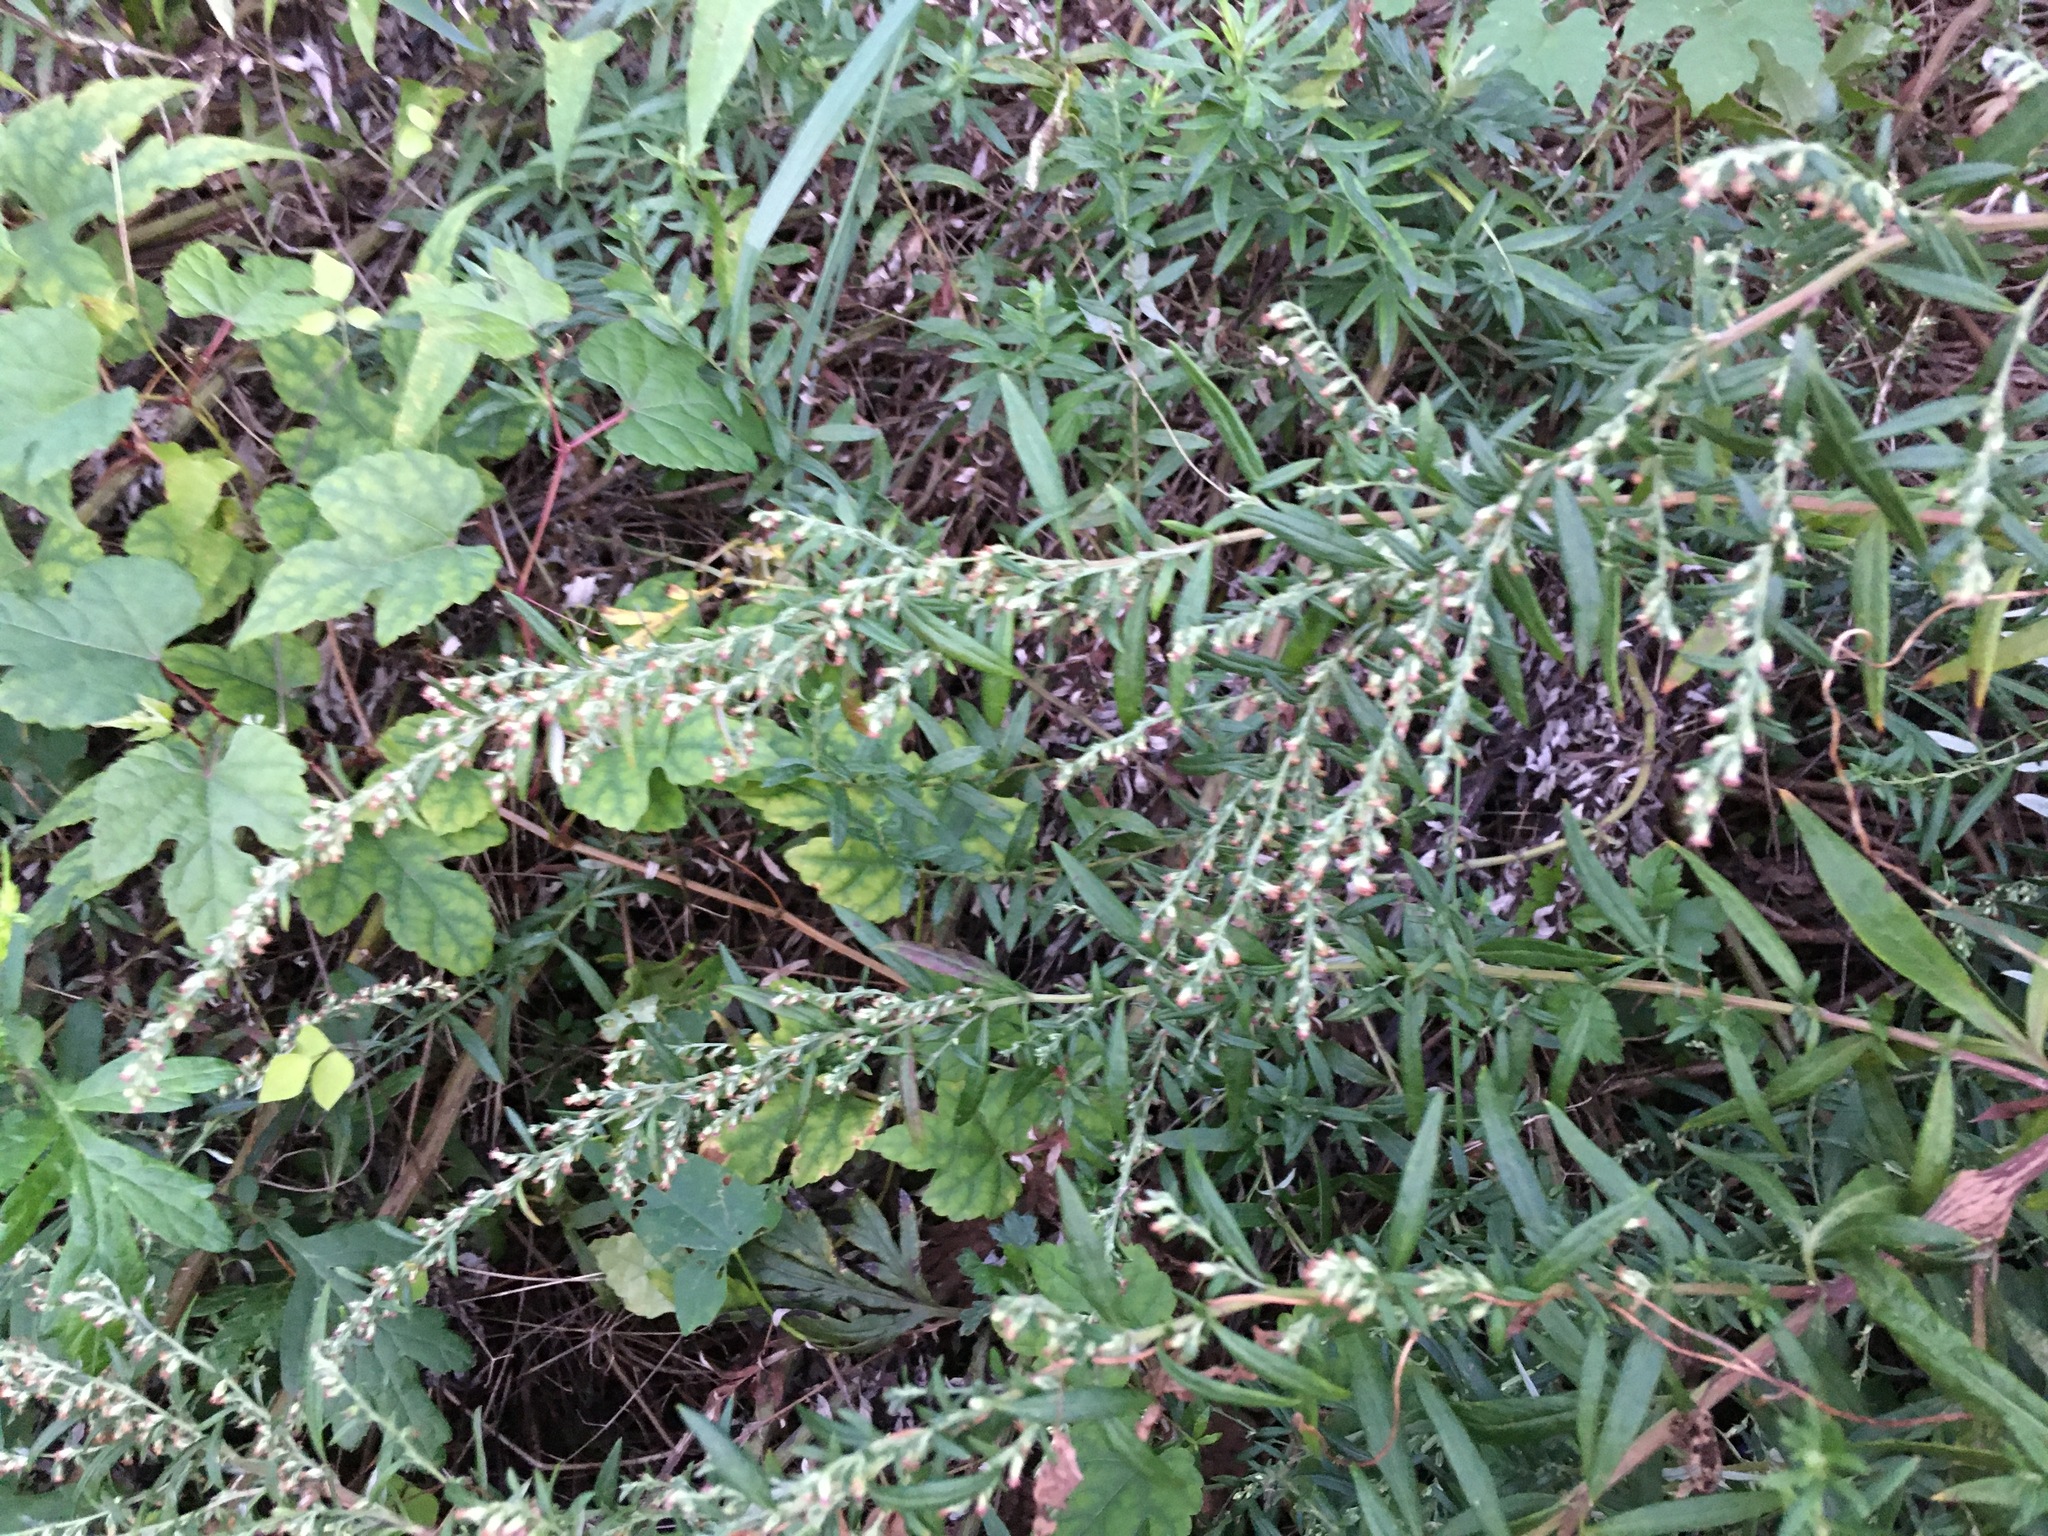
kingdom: Plantae
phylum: Tracheophyta
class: Magnoliopsida
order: Asterales
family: Asteraceae
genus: Artemisia
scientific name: Artemisia vulgaris
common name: Mugwort
